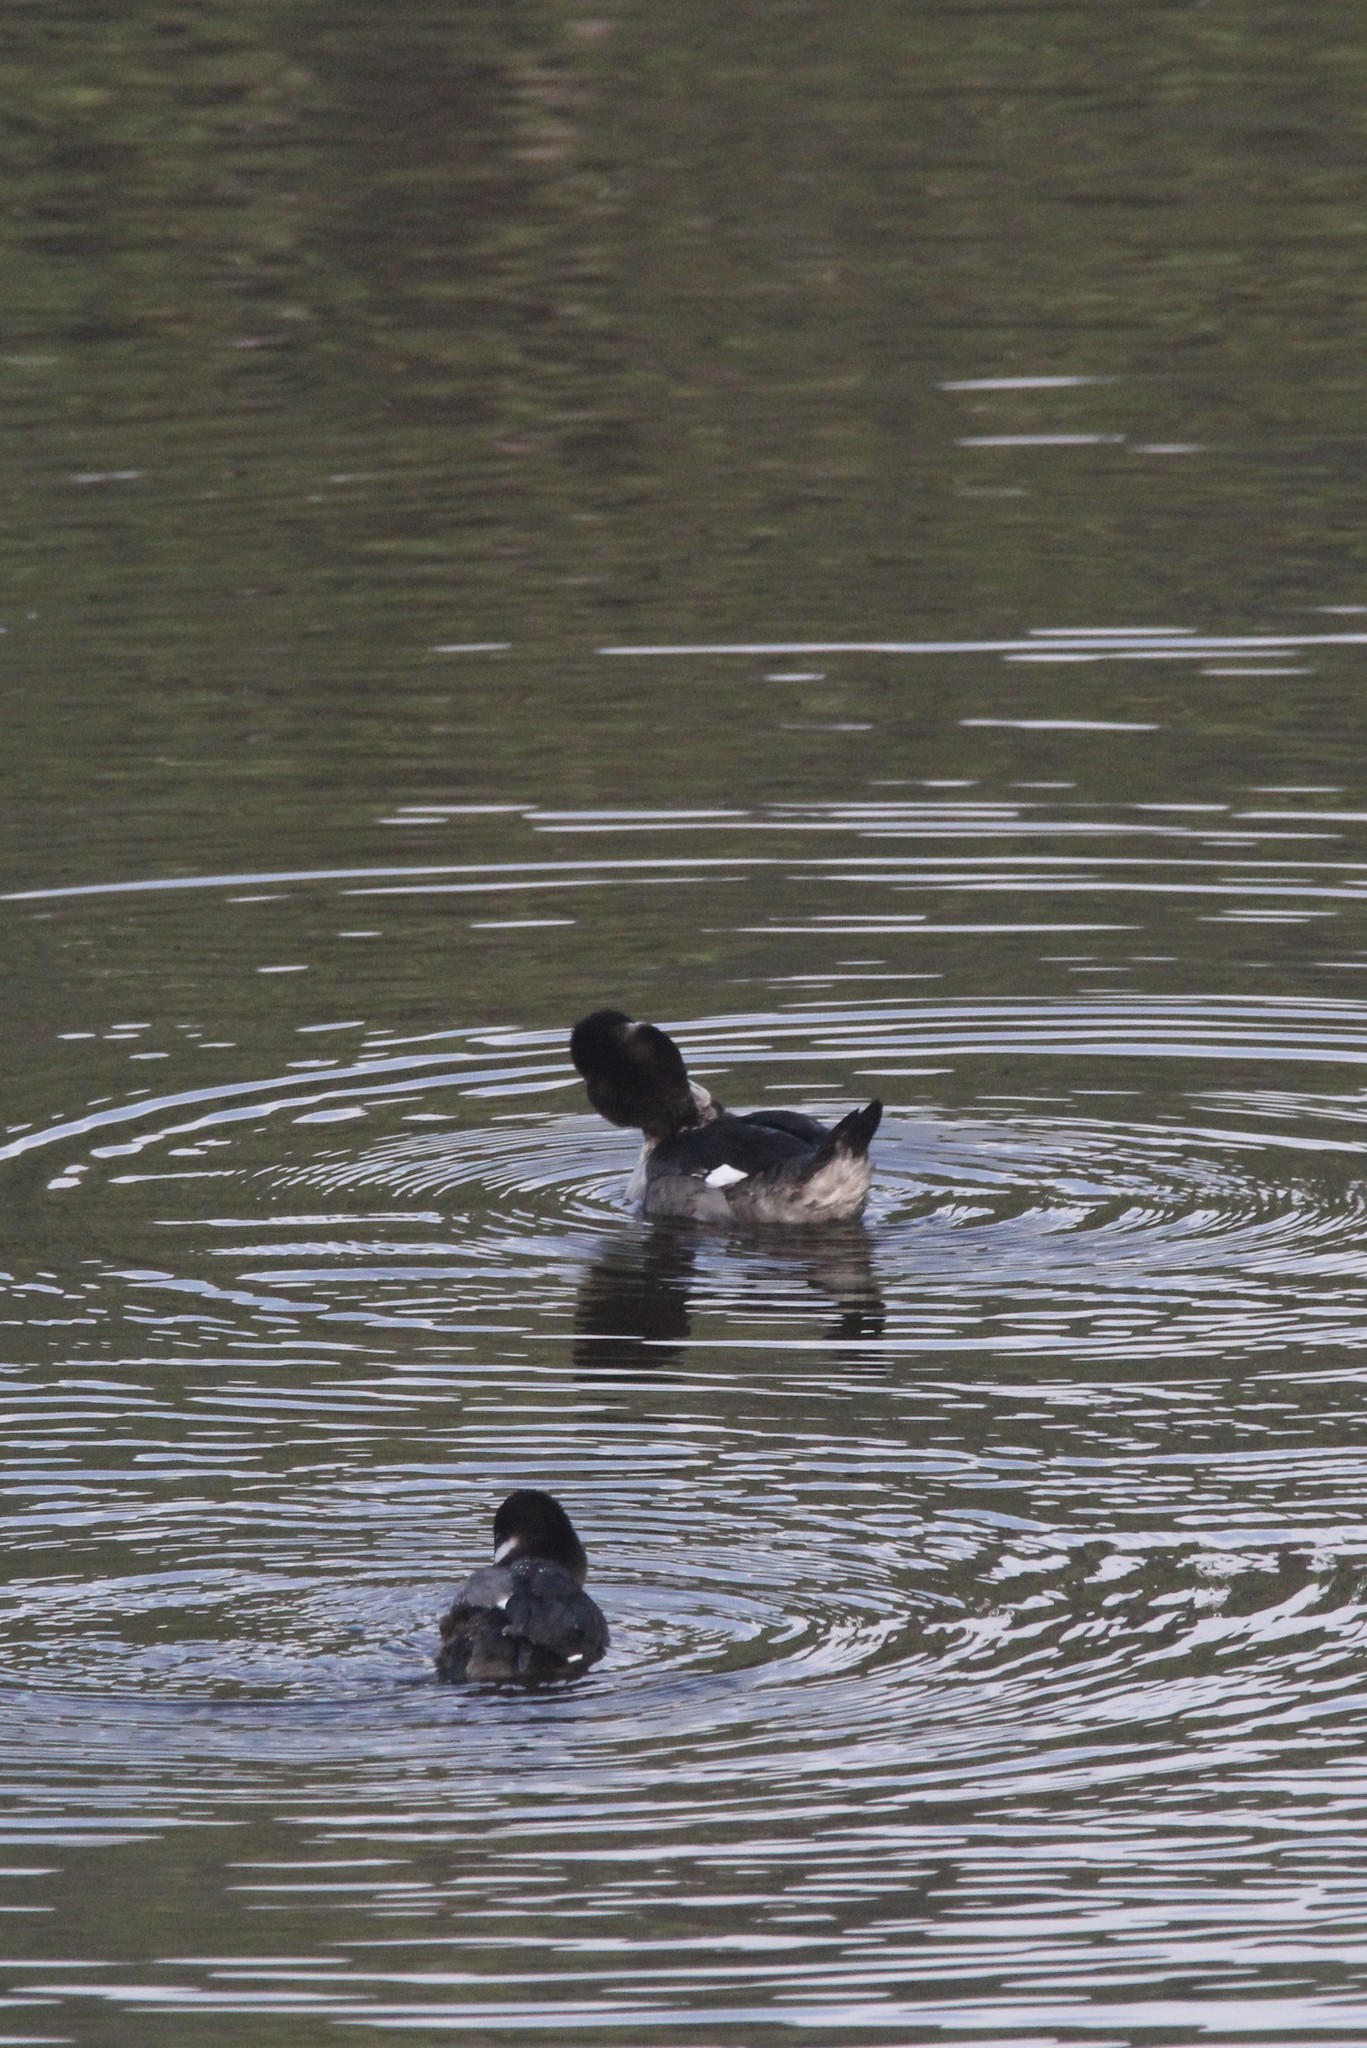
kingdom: Animalia
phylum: Chordata
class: Aves
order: Anseriformes
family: Anatidae
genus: Bucephala
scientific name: Bucephala albeola
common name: Bufflehead
